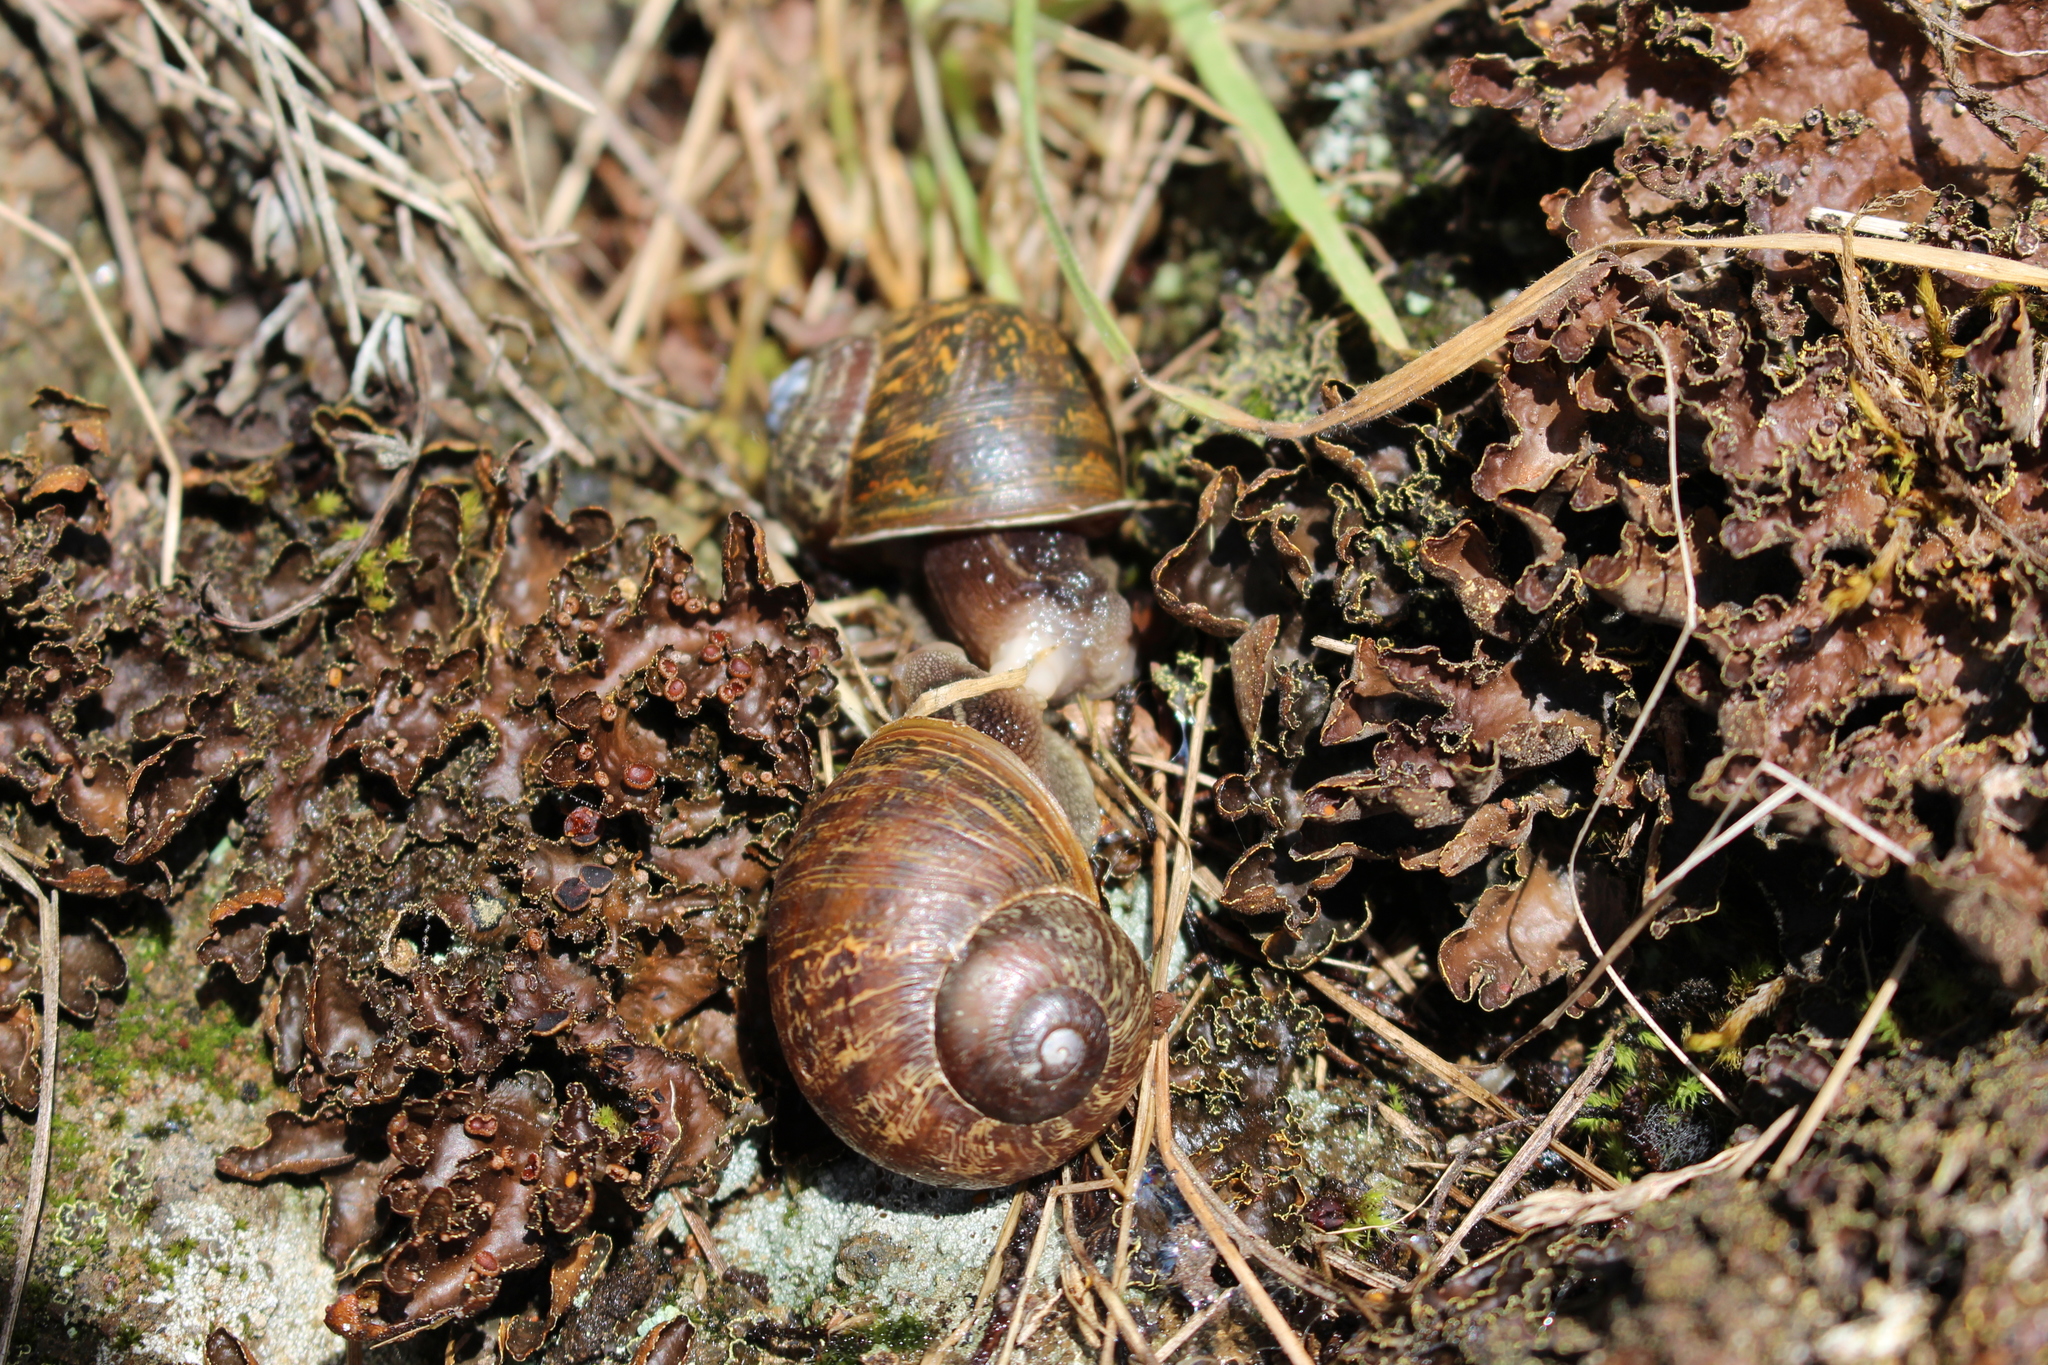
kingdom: Animalia
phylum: Mollusca
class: Gastropoda
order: Stylommatophora
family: Helicidae
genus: Cornu
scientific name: Cornu aspersum
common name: Brown garden snail
